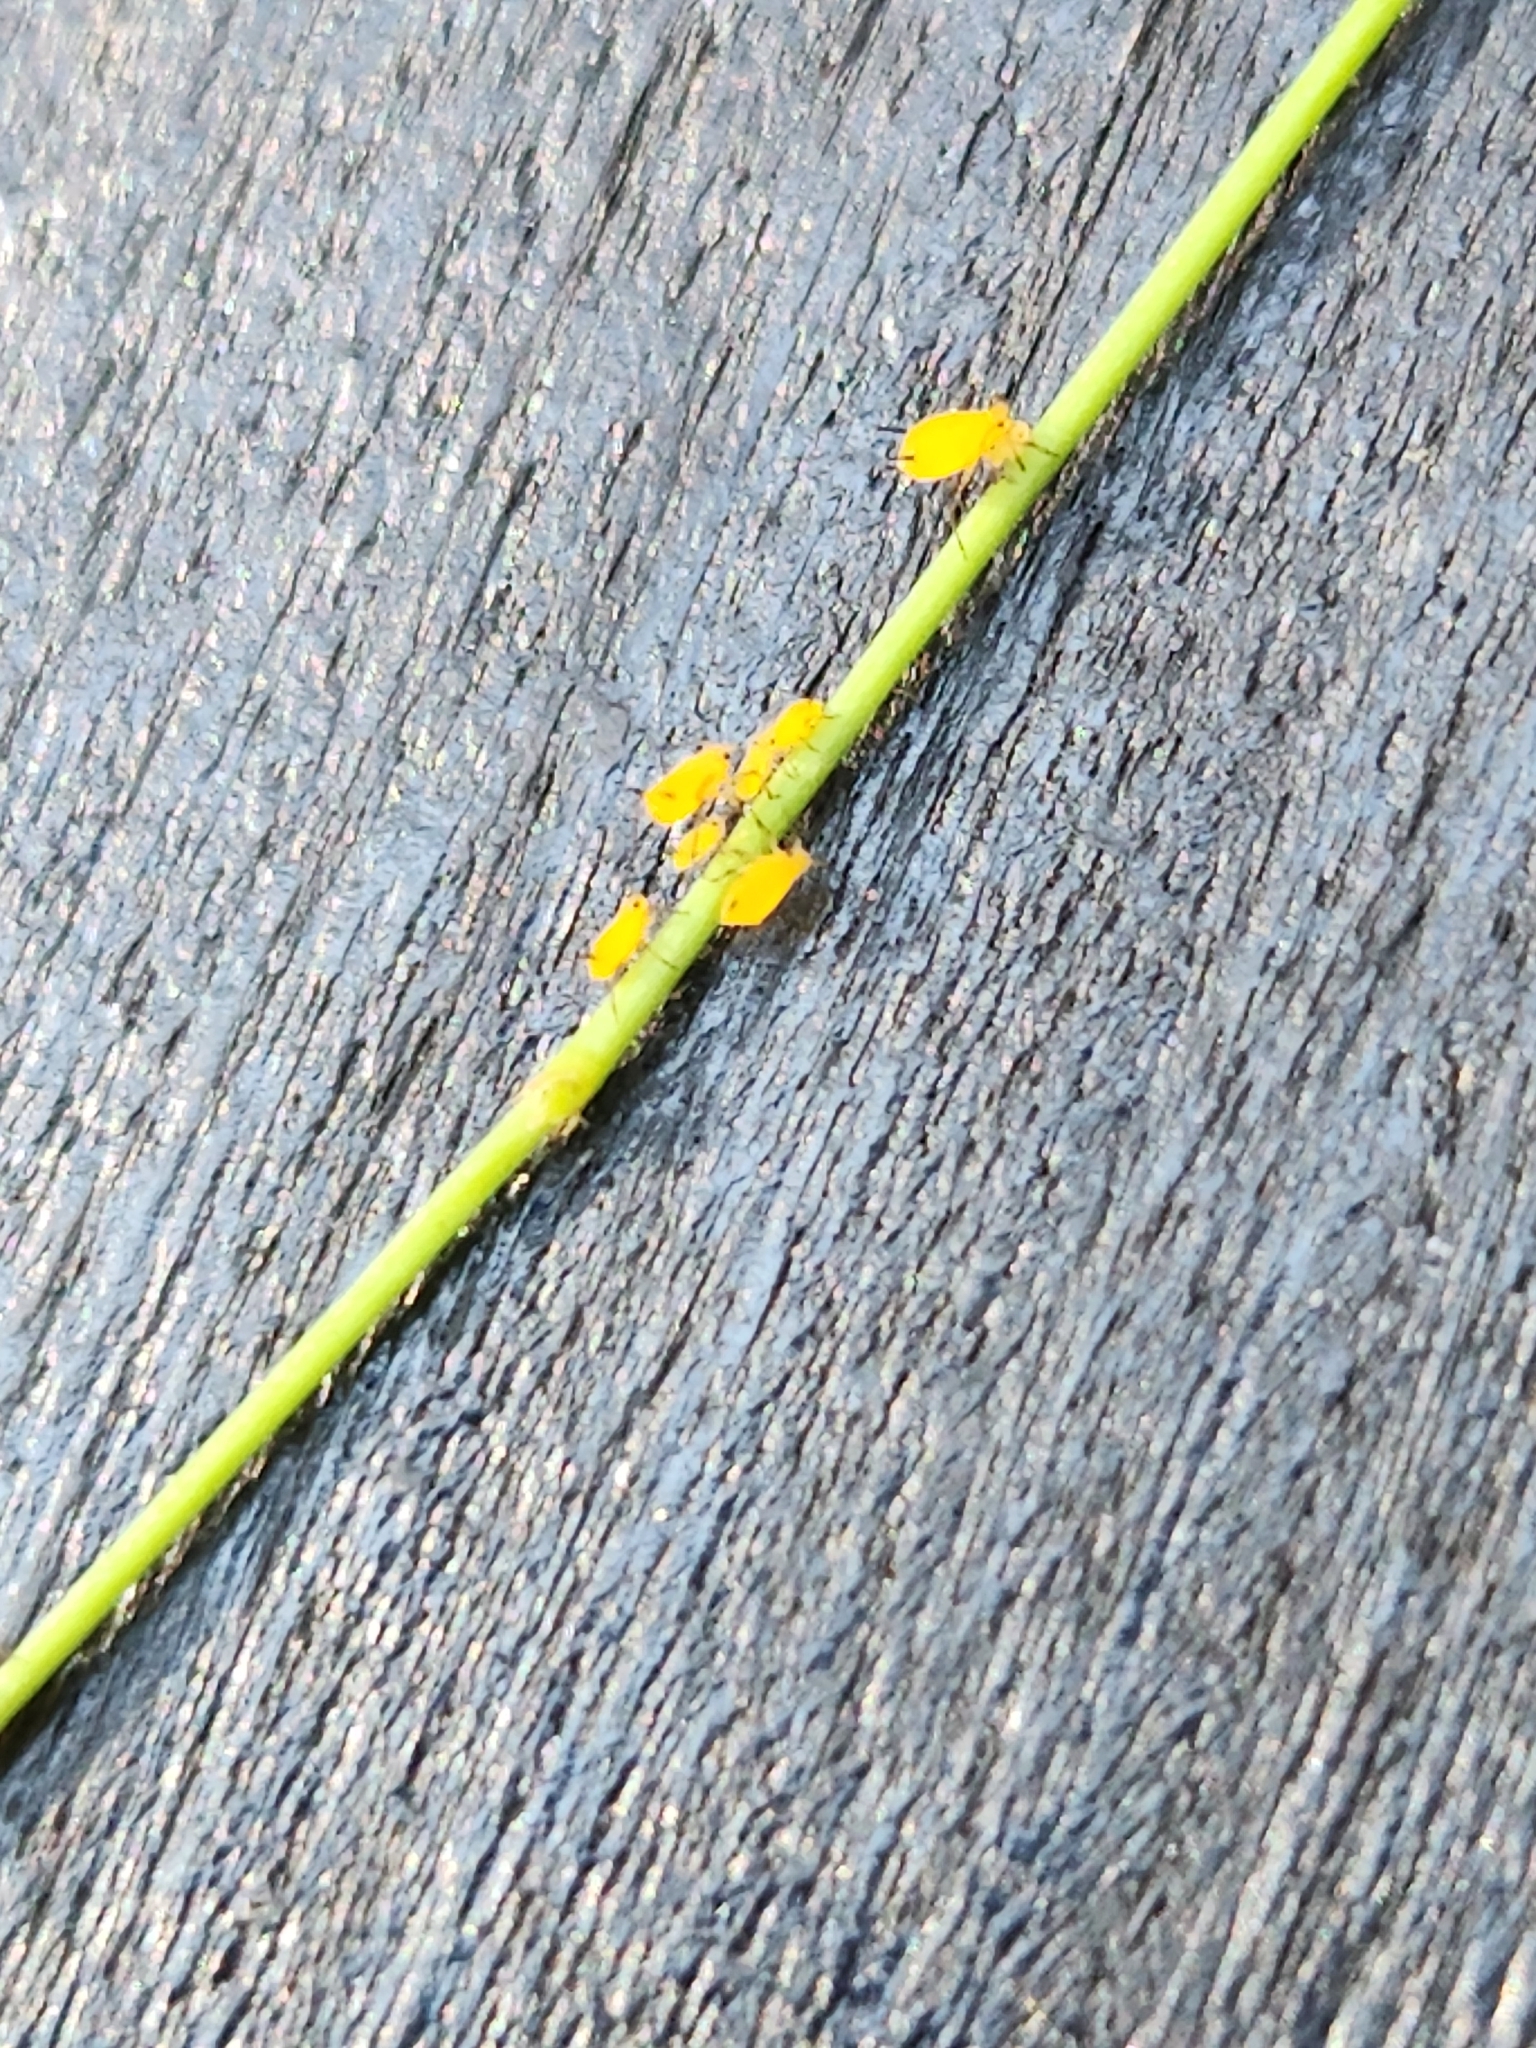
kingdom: Animalia
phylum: Arthropoda
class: Insecta
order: Hemiptera
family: Aphididae
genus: Aphis
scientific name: Aphis nerii
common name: Oleander aphid
